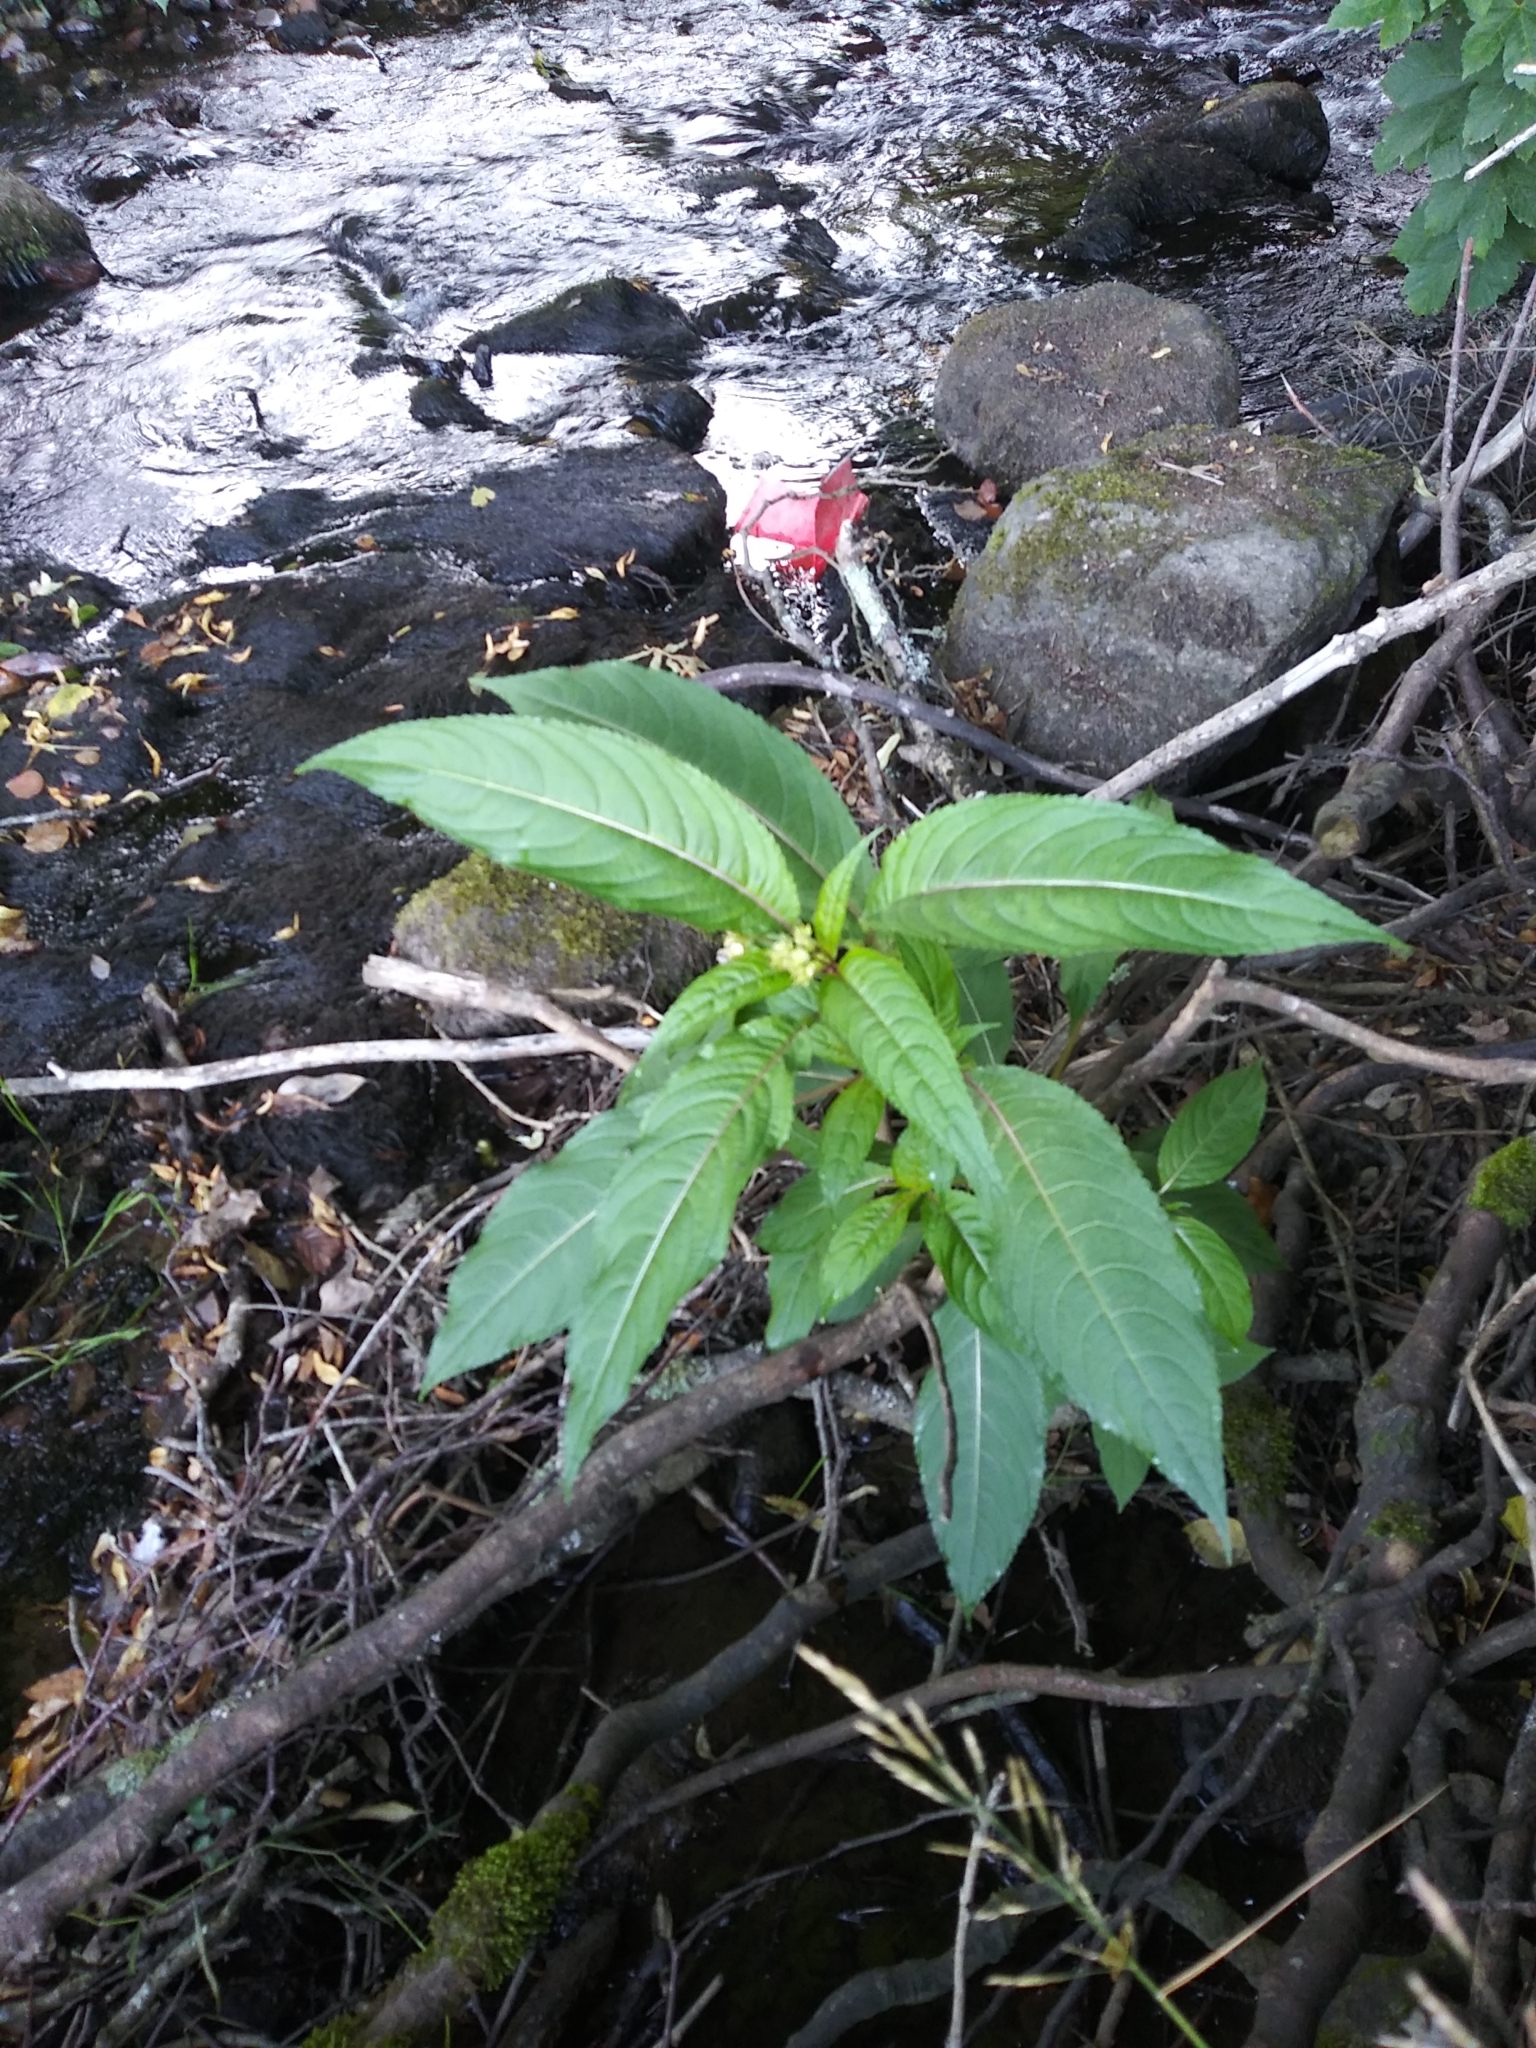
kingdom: Plantae
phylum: Tracheophyta
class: Magnoliopsida
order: Ericales
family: Balsaminaceae
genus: Impatiens
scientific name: Impatiens glandulifera
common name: Himalayan balsam
